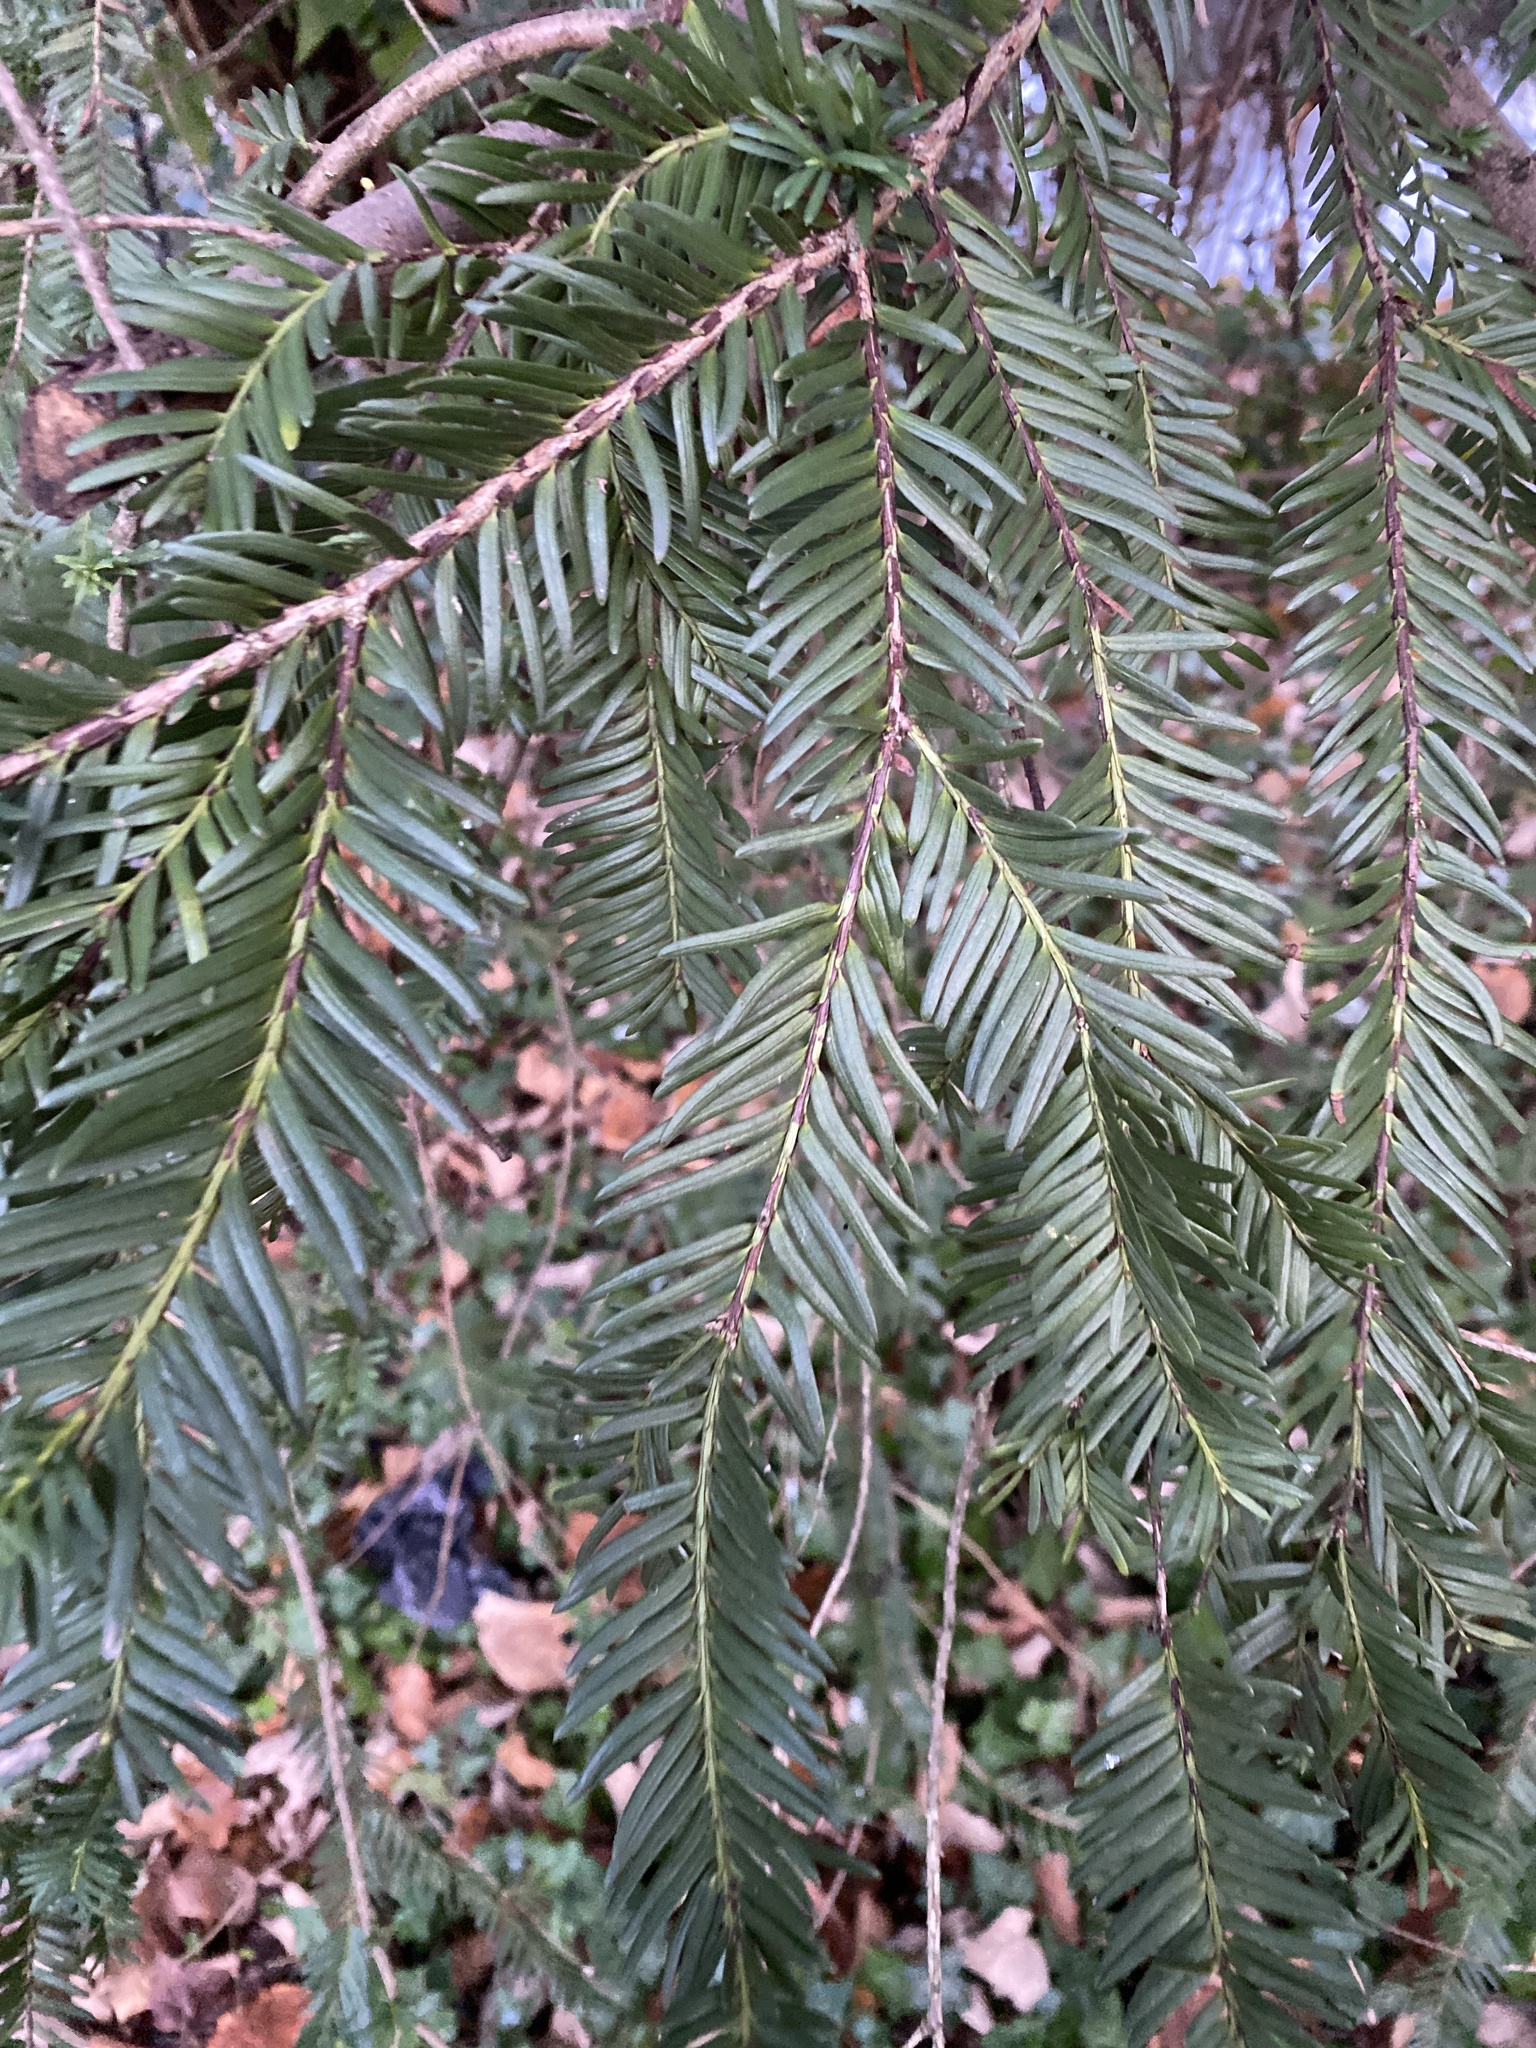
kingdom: Plantae
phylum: Tracheophyta
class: Pinopsida
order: Pinales
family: Taxaceae
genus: Taxus
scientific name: Taxus baccata
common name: Yew
